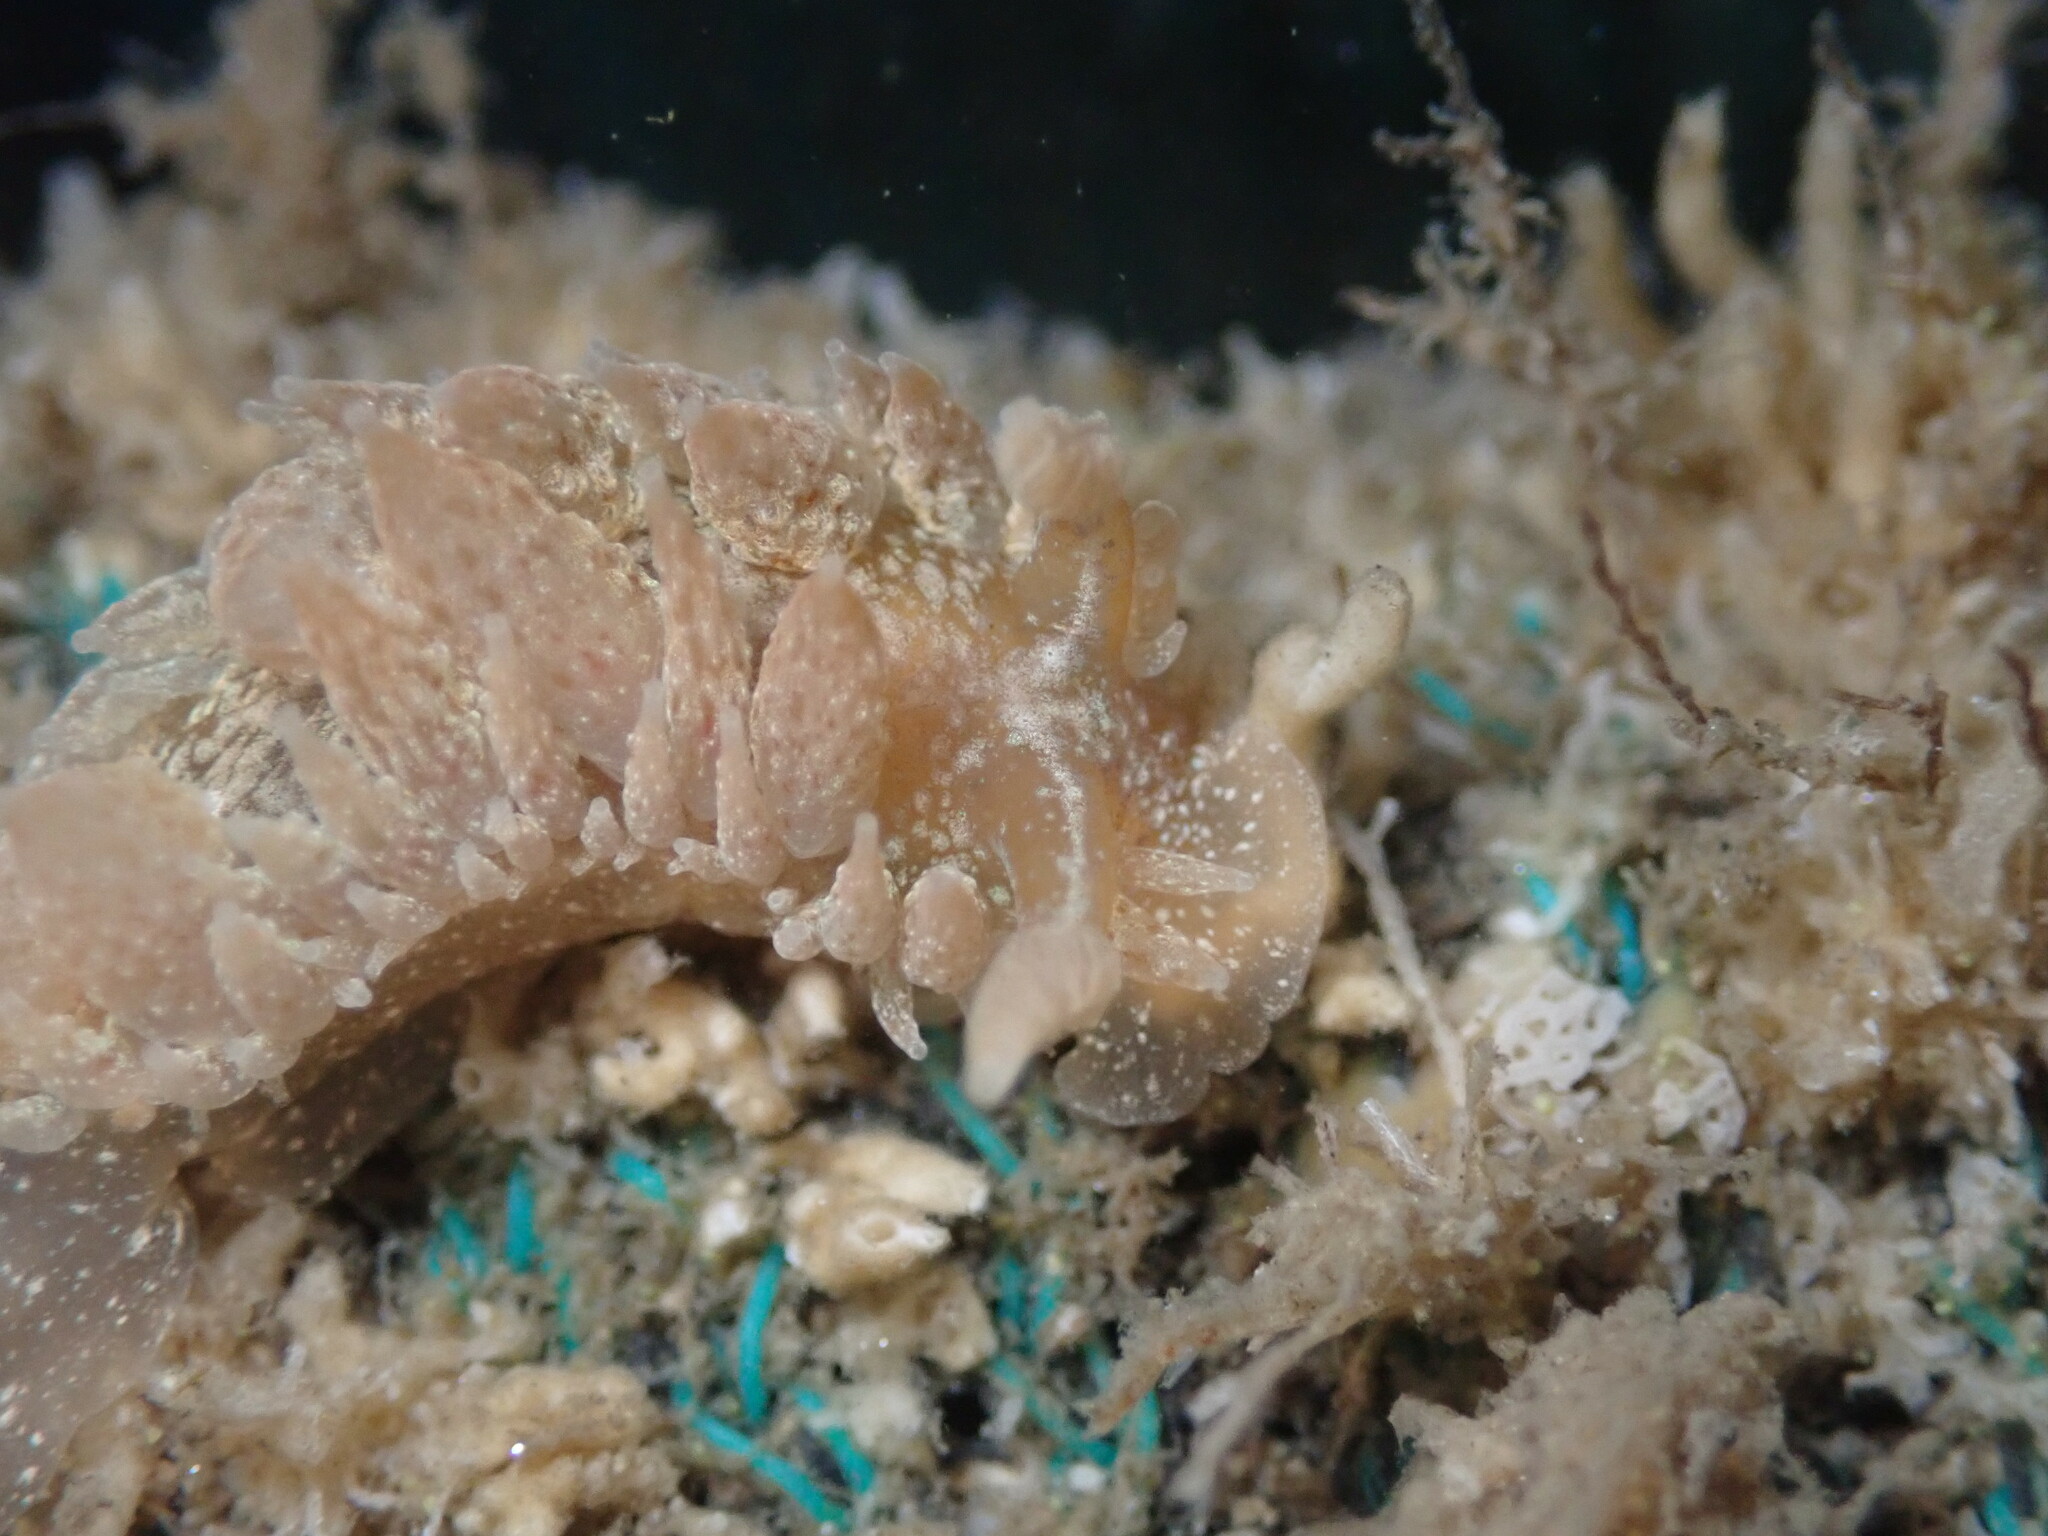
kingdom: Animalia
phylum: Mollusca
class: Gastropoda
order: Nudibranchia
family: Dironidae
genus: Dirona
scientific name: Dirona picta
